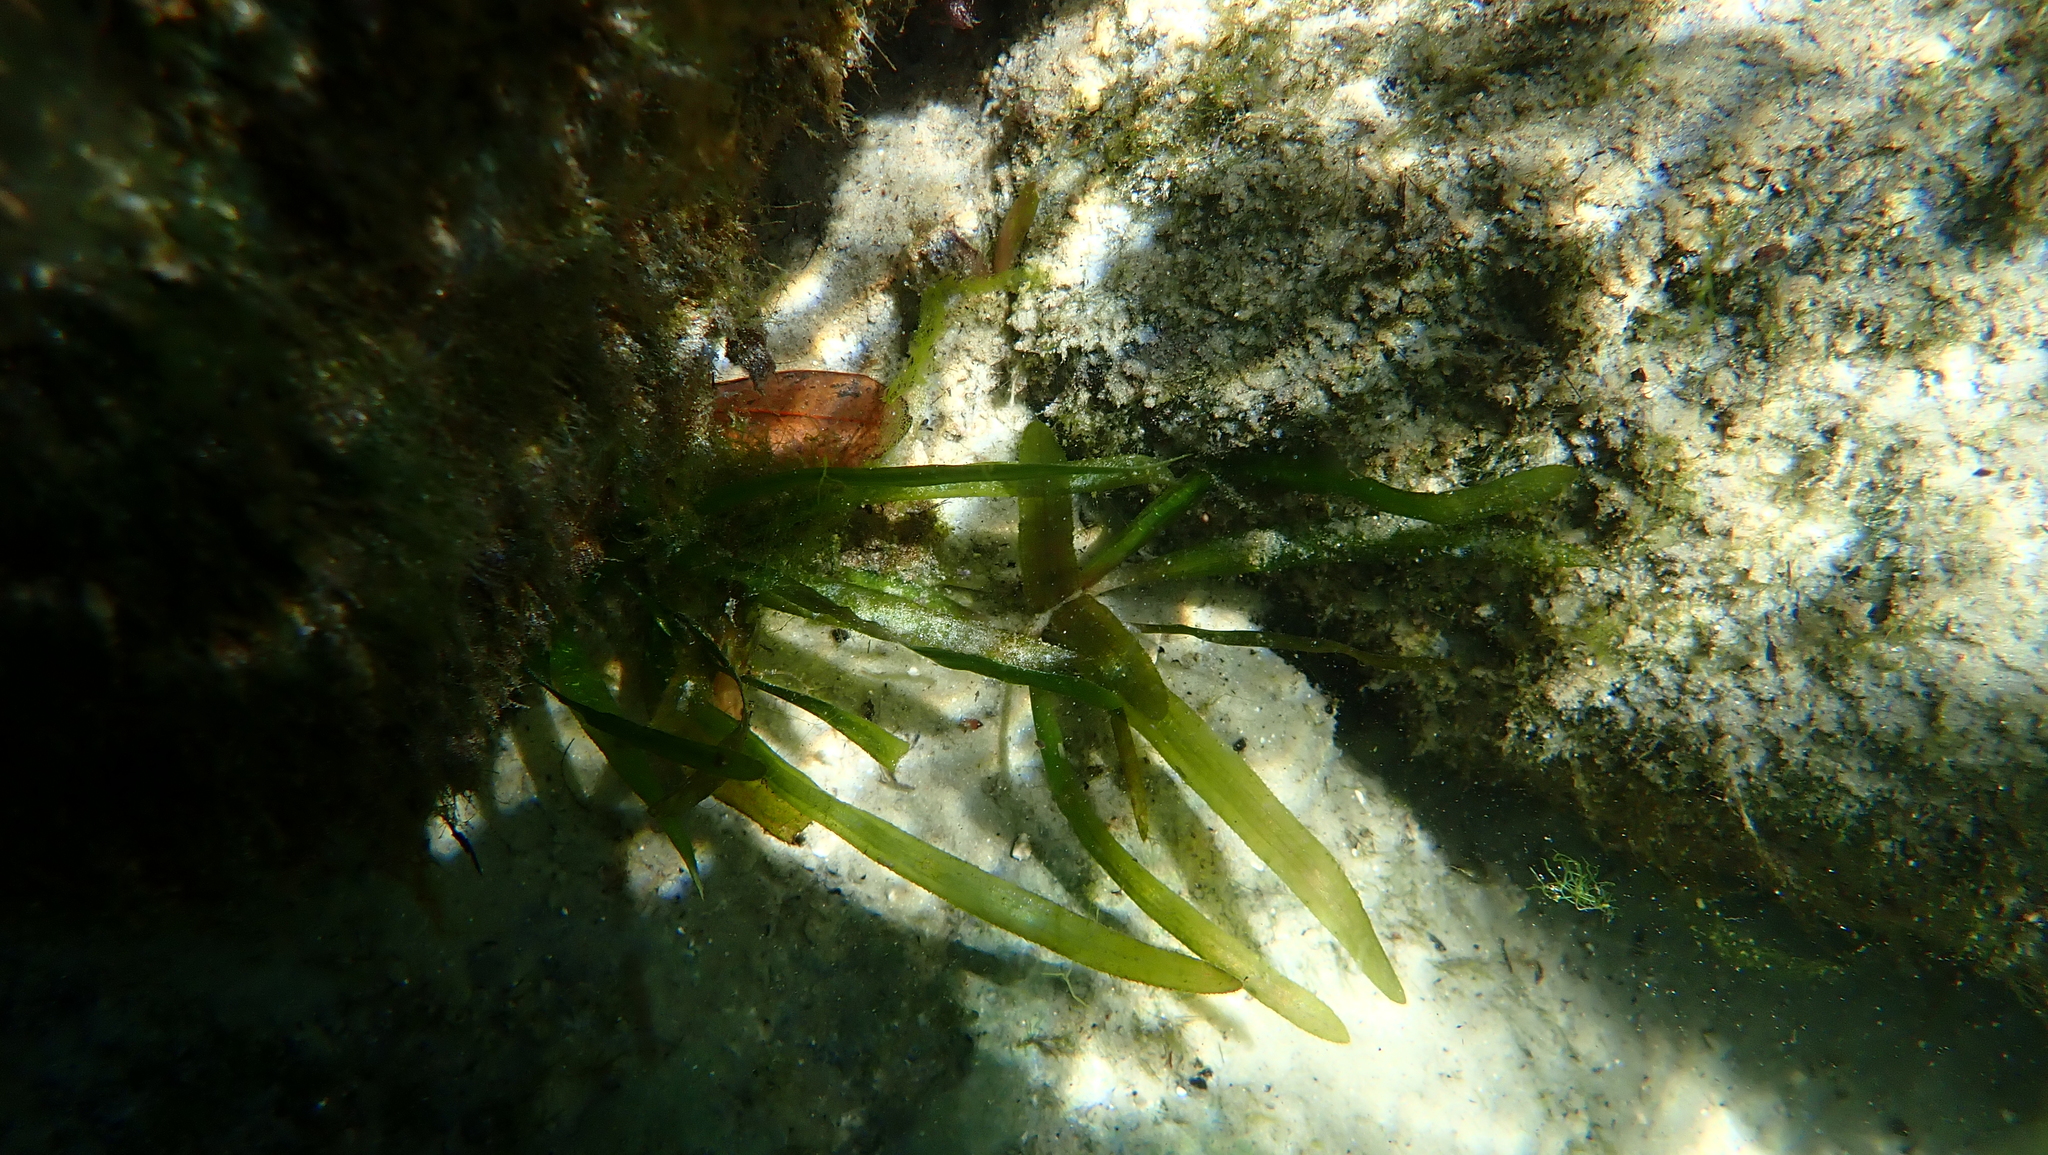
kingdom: Plantae
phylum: Tracheophyta
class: Liliopsida
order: Alismatales
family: Hydrocharitaceae
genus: Vallisneria
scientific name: Vallisneria americana
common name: American eelgrass
